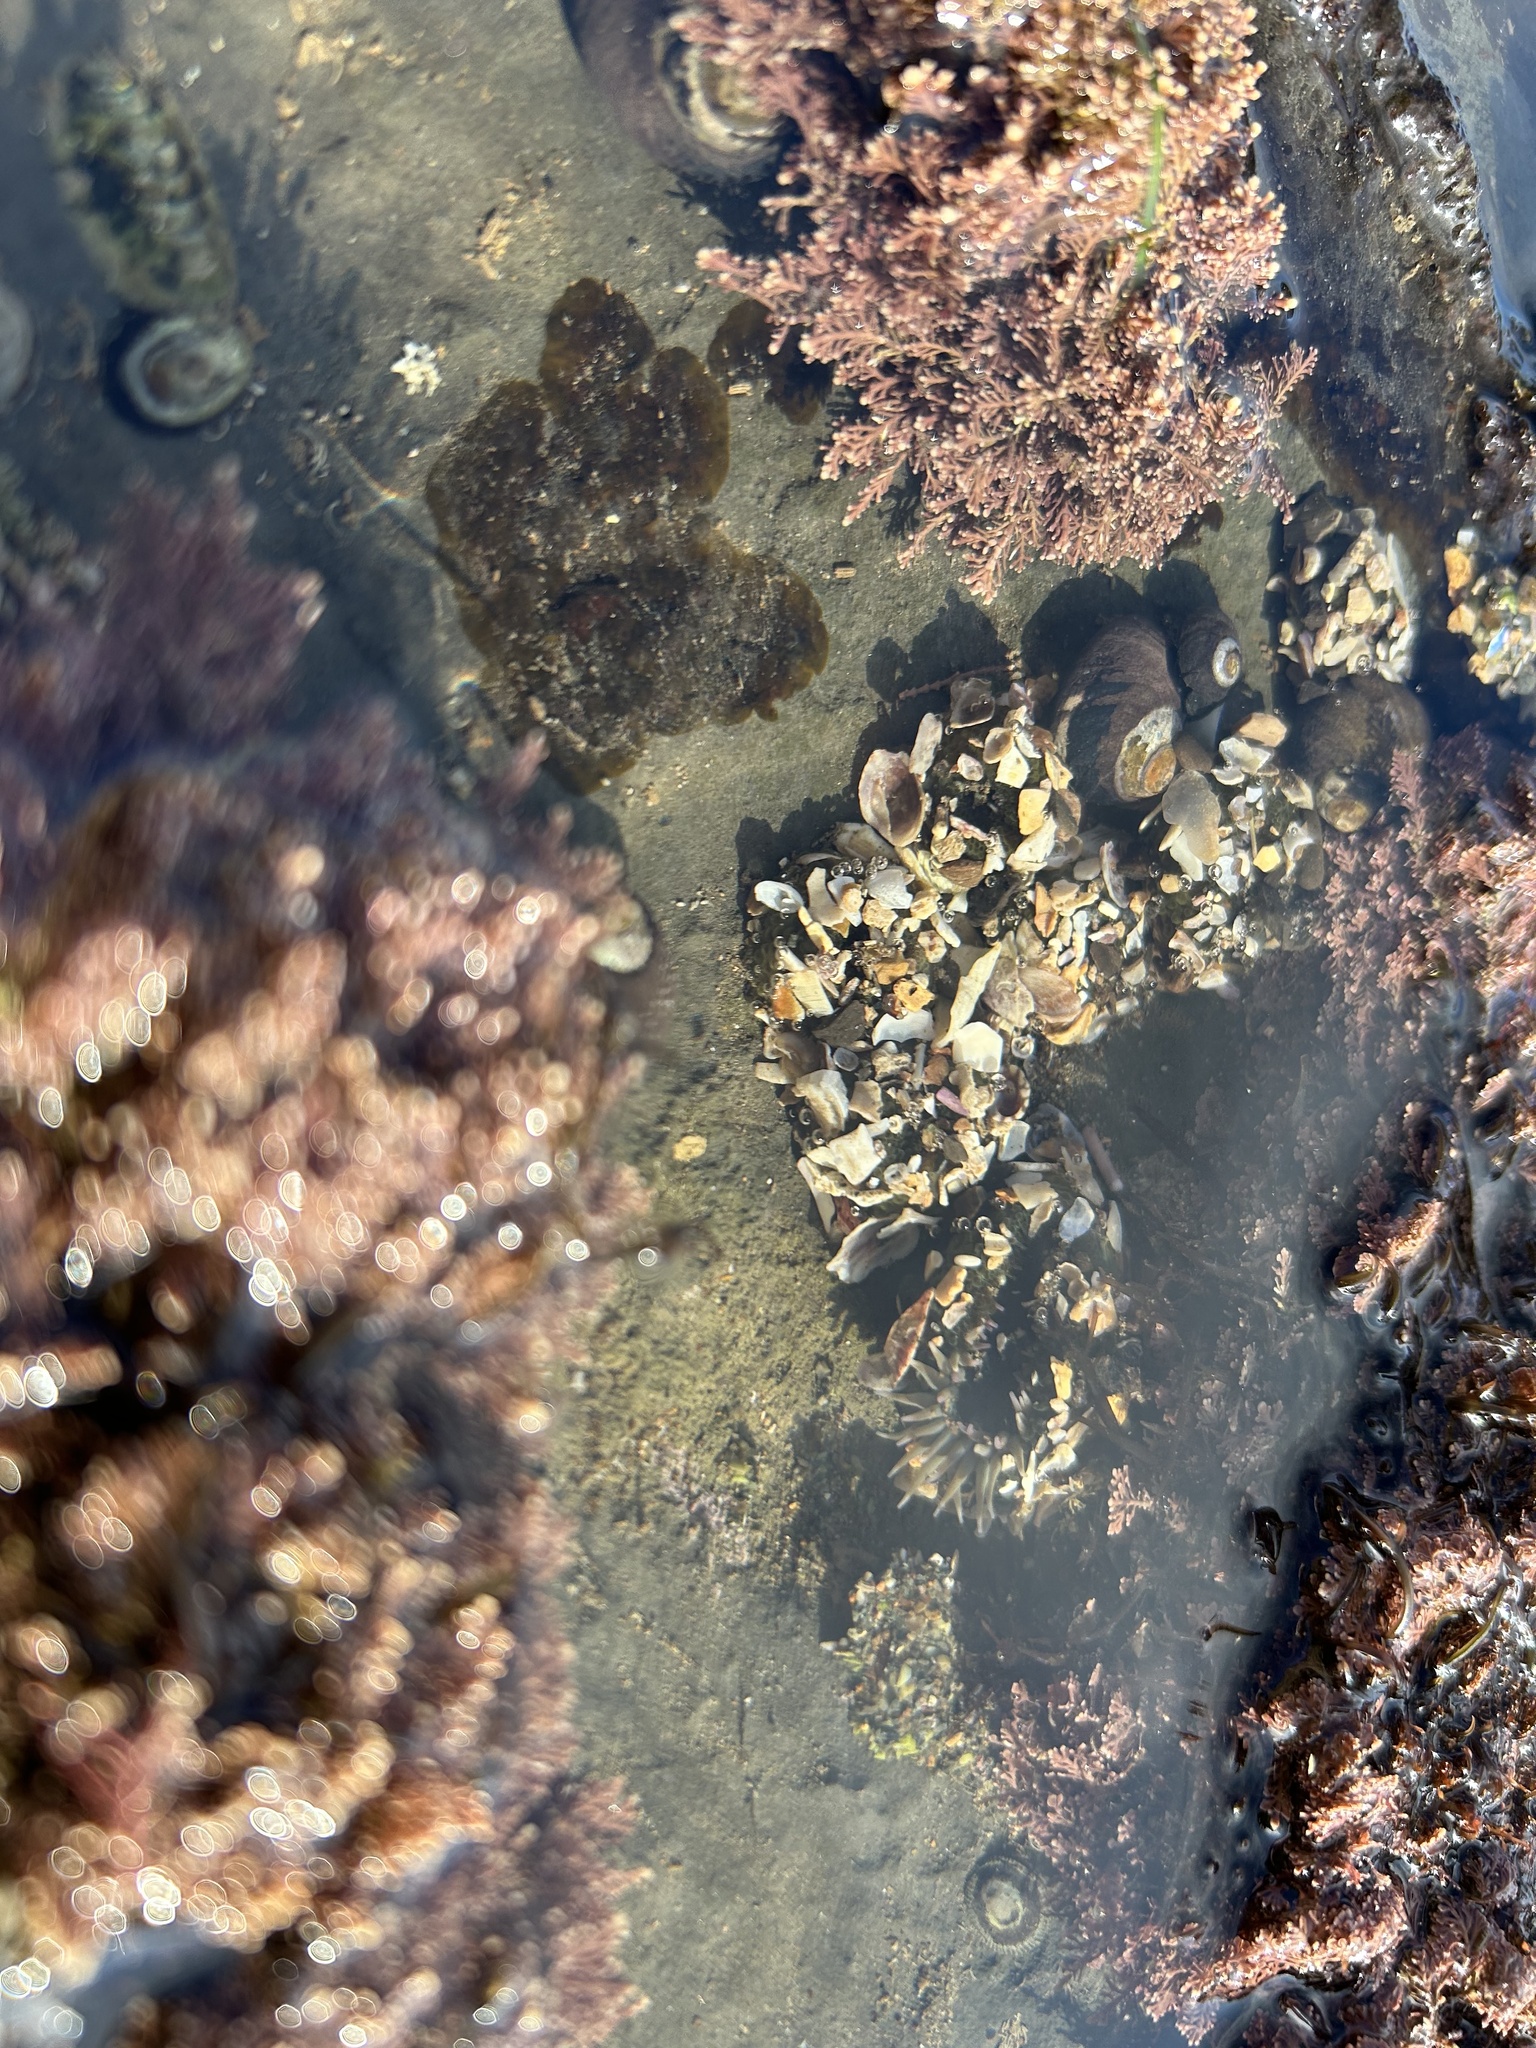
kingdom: Animalia
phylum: Cnidaria
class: Anthozoa
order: Actiniaria
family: Actiniidae
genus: Anthopleura
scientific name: Anthopleura elegantissima
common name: Clonal anemone
